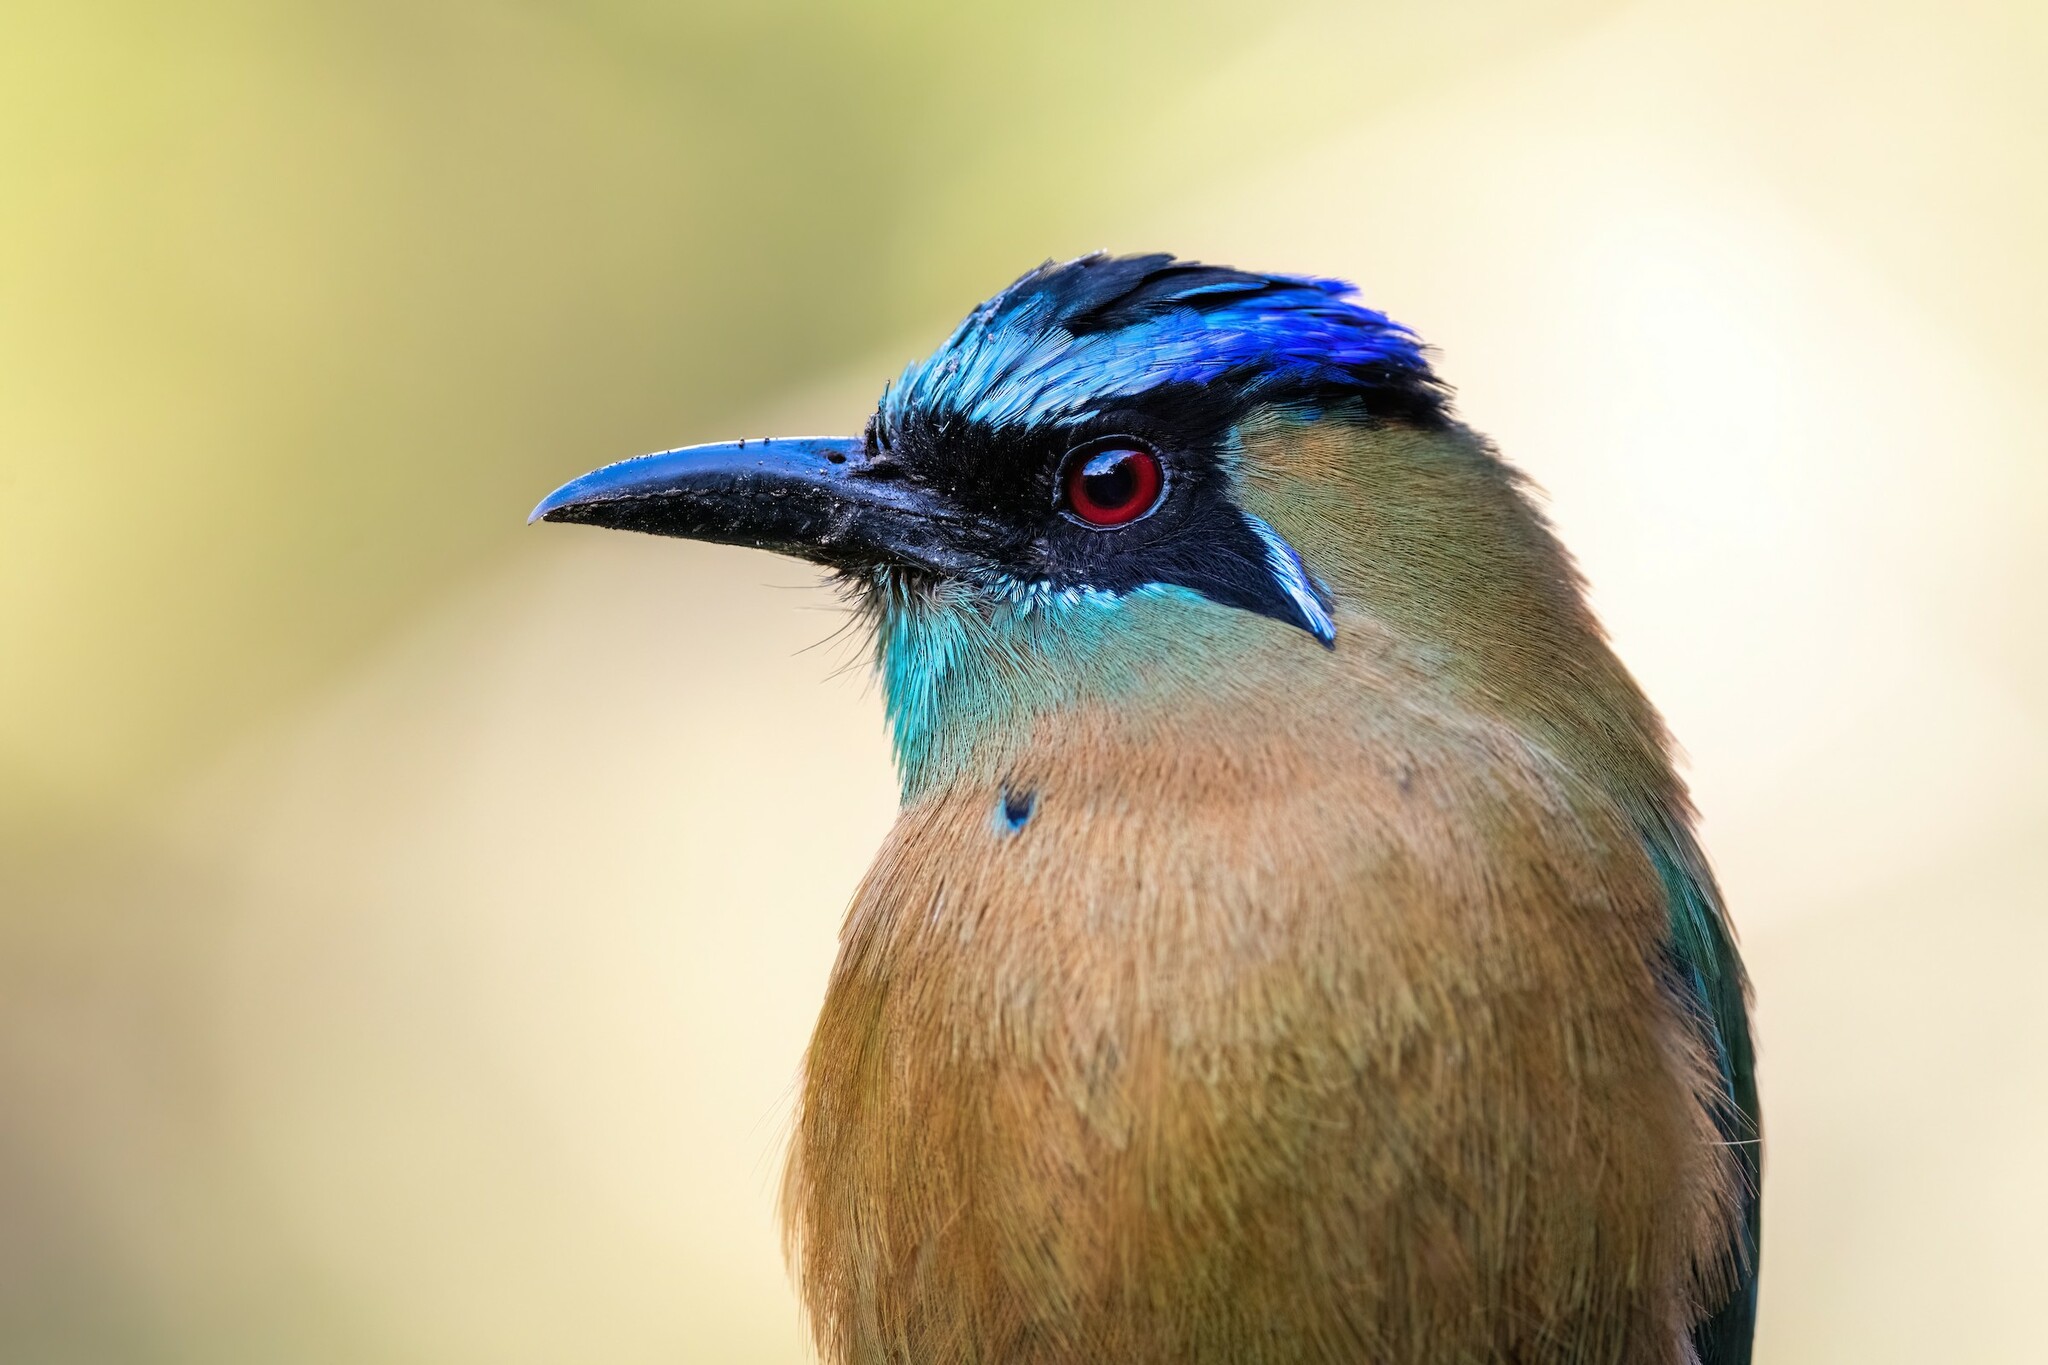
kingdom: Animalia
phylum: Chordata
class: Aves
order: Coraciiformes
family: Momotidae
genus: Momotus
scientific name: Momotus lessonii
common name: Lesson's motmot
